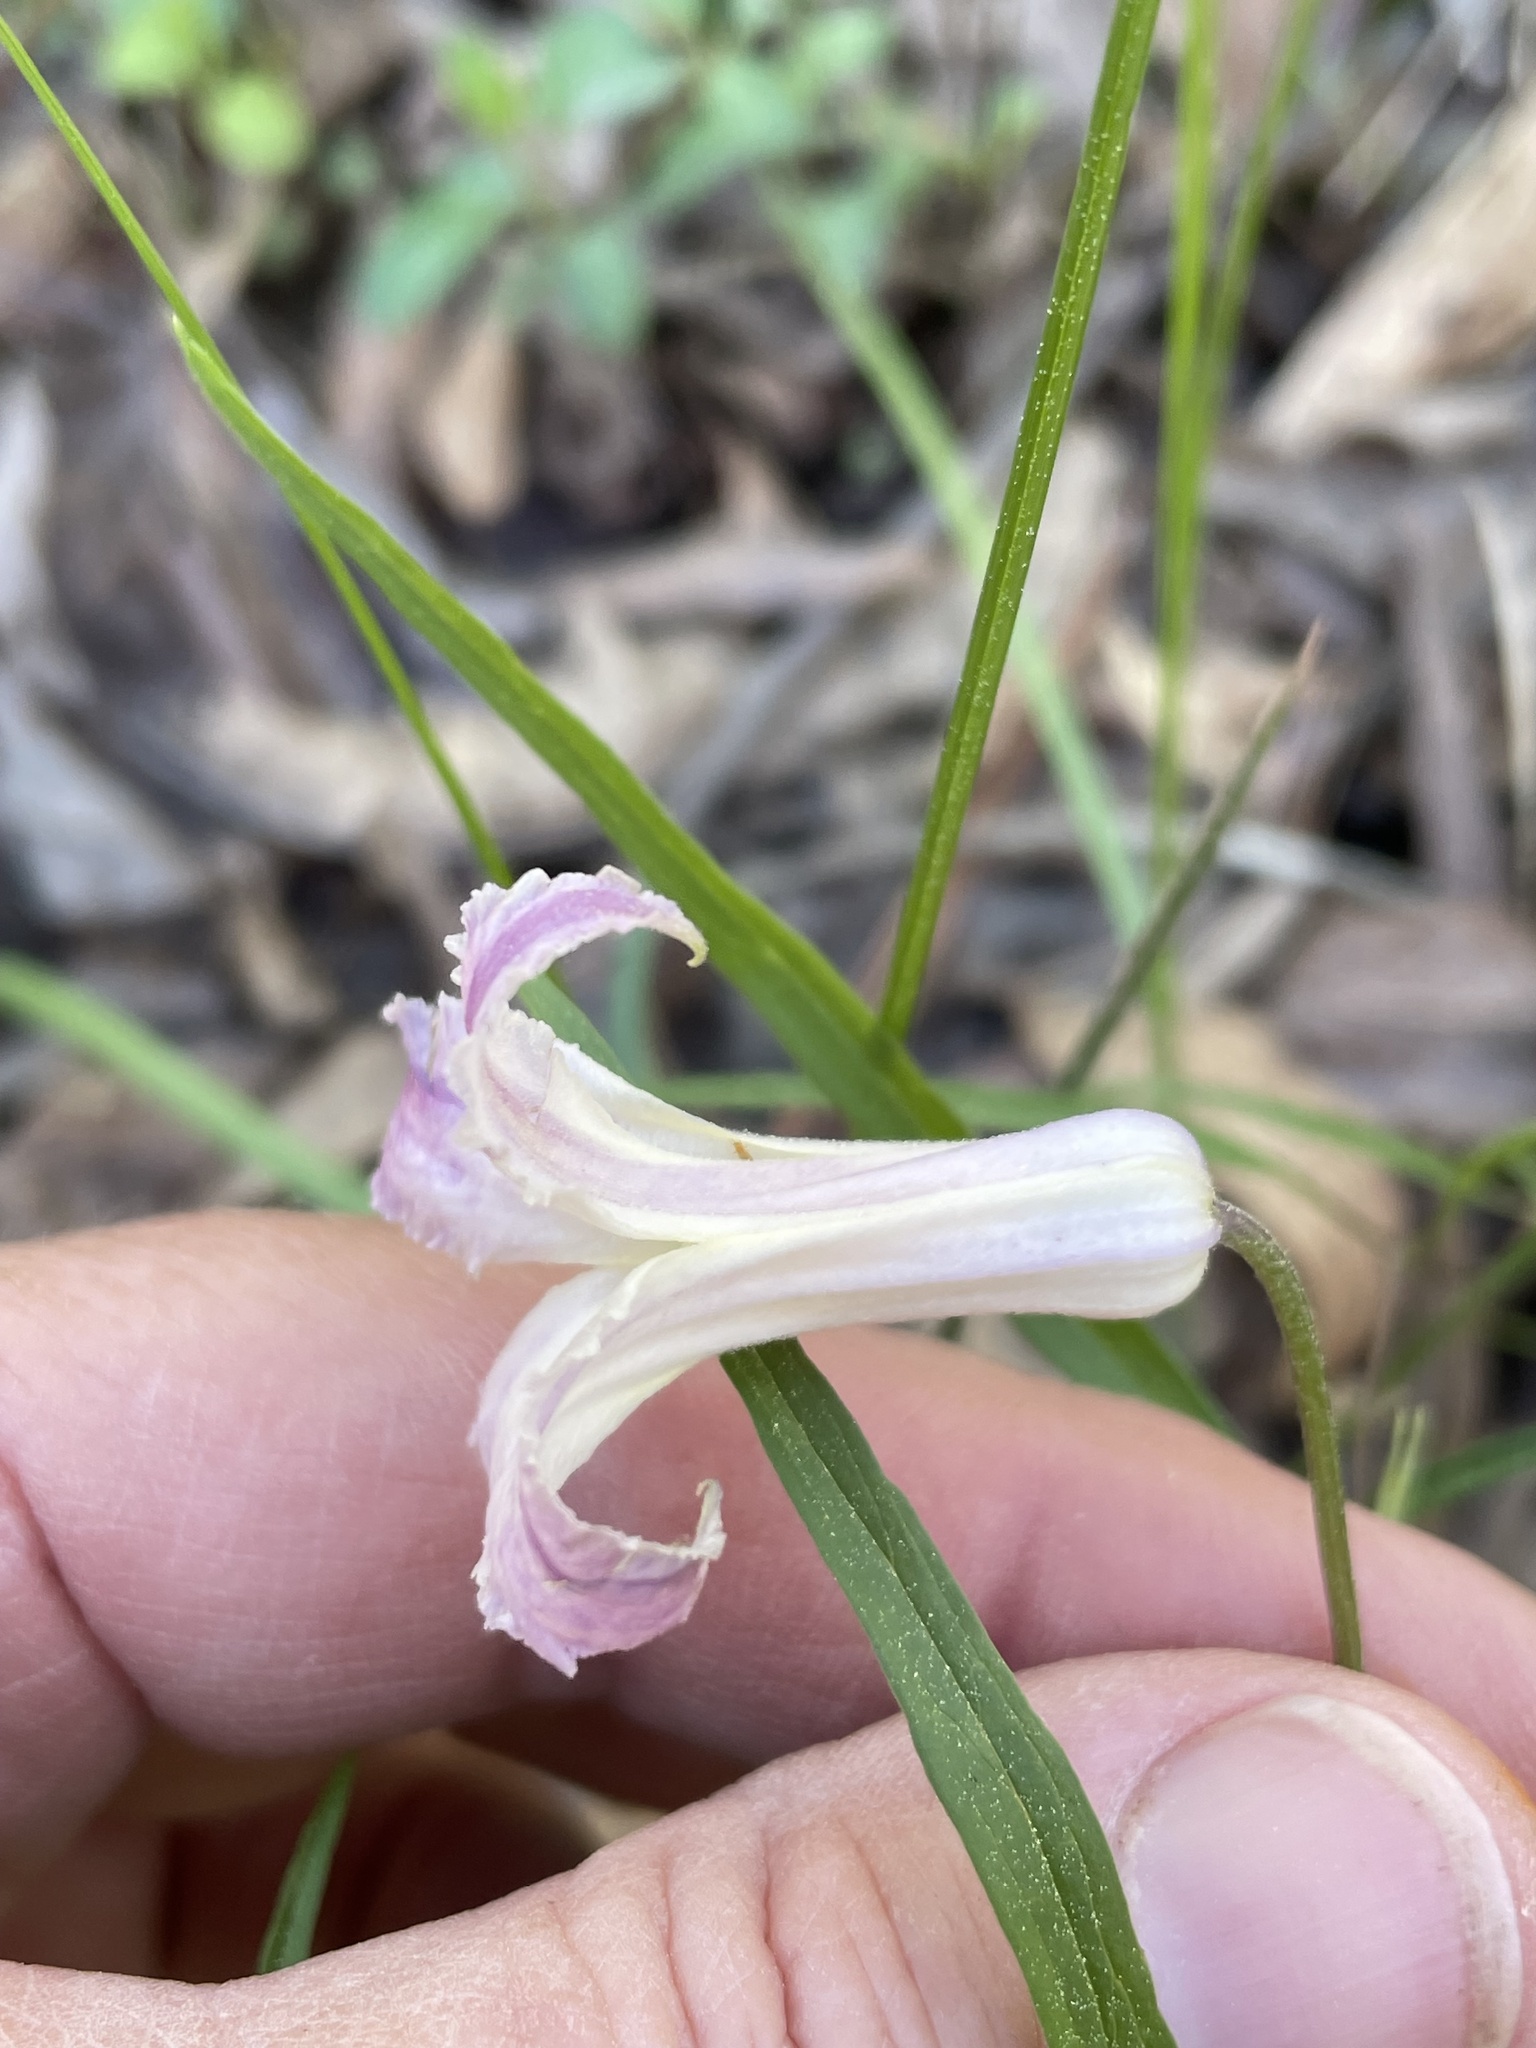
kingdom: Plantae
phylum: Tracheophyta
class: Magnoliopsida
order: Ranunculales
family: Ranunculaceae
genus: Clematis
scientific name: Clematis crispa
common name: Curly clematis
